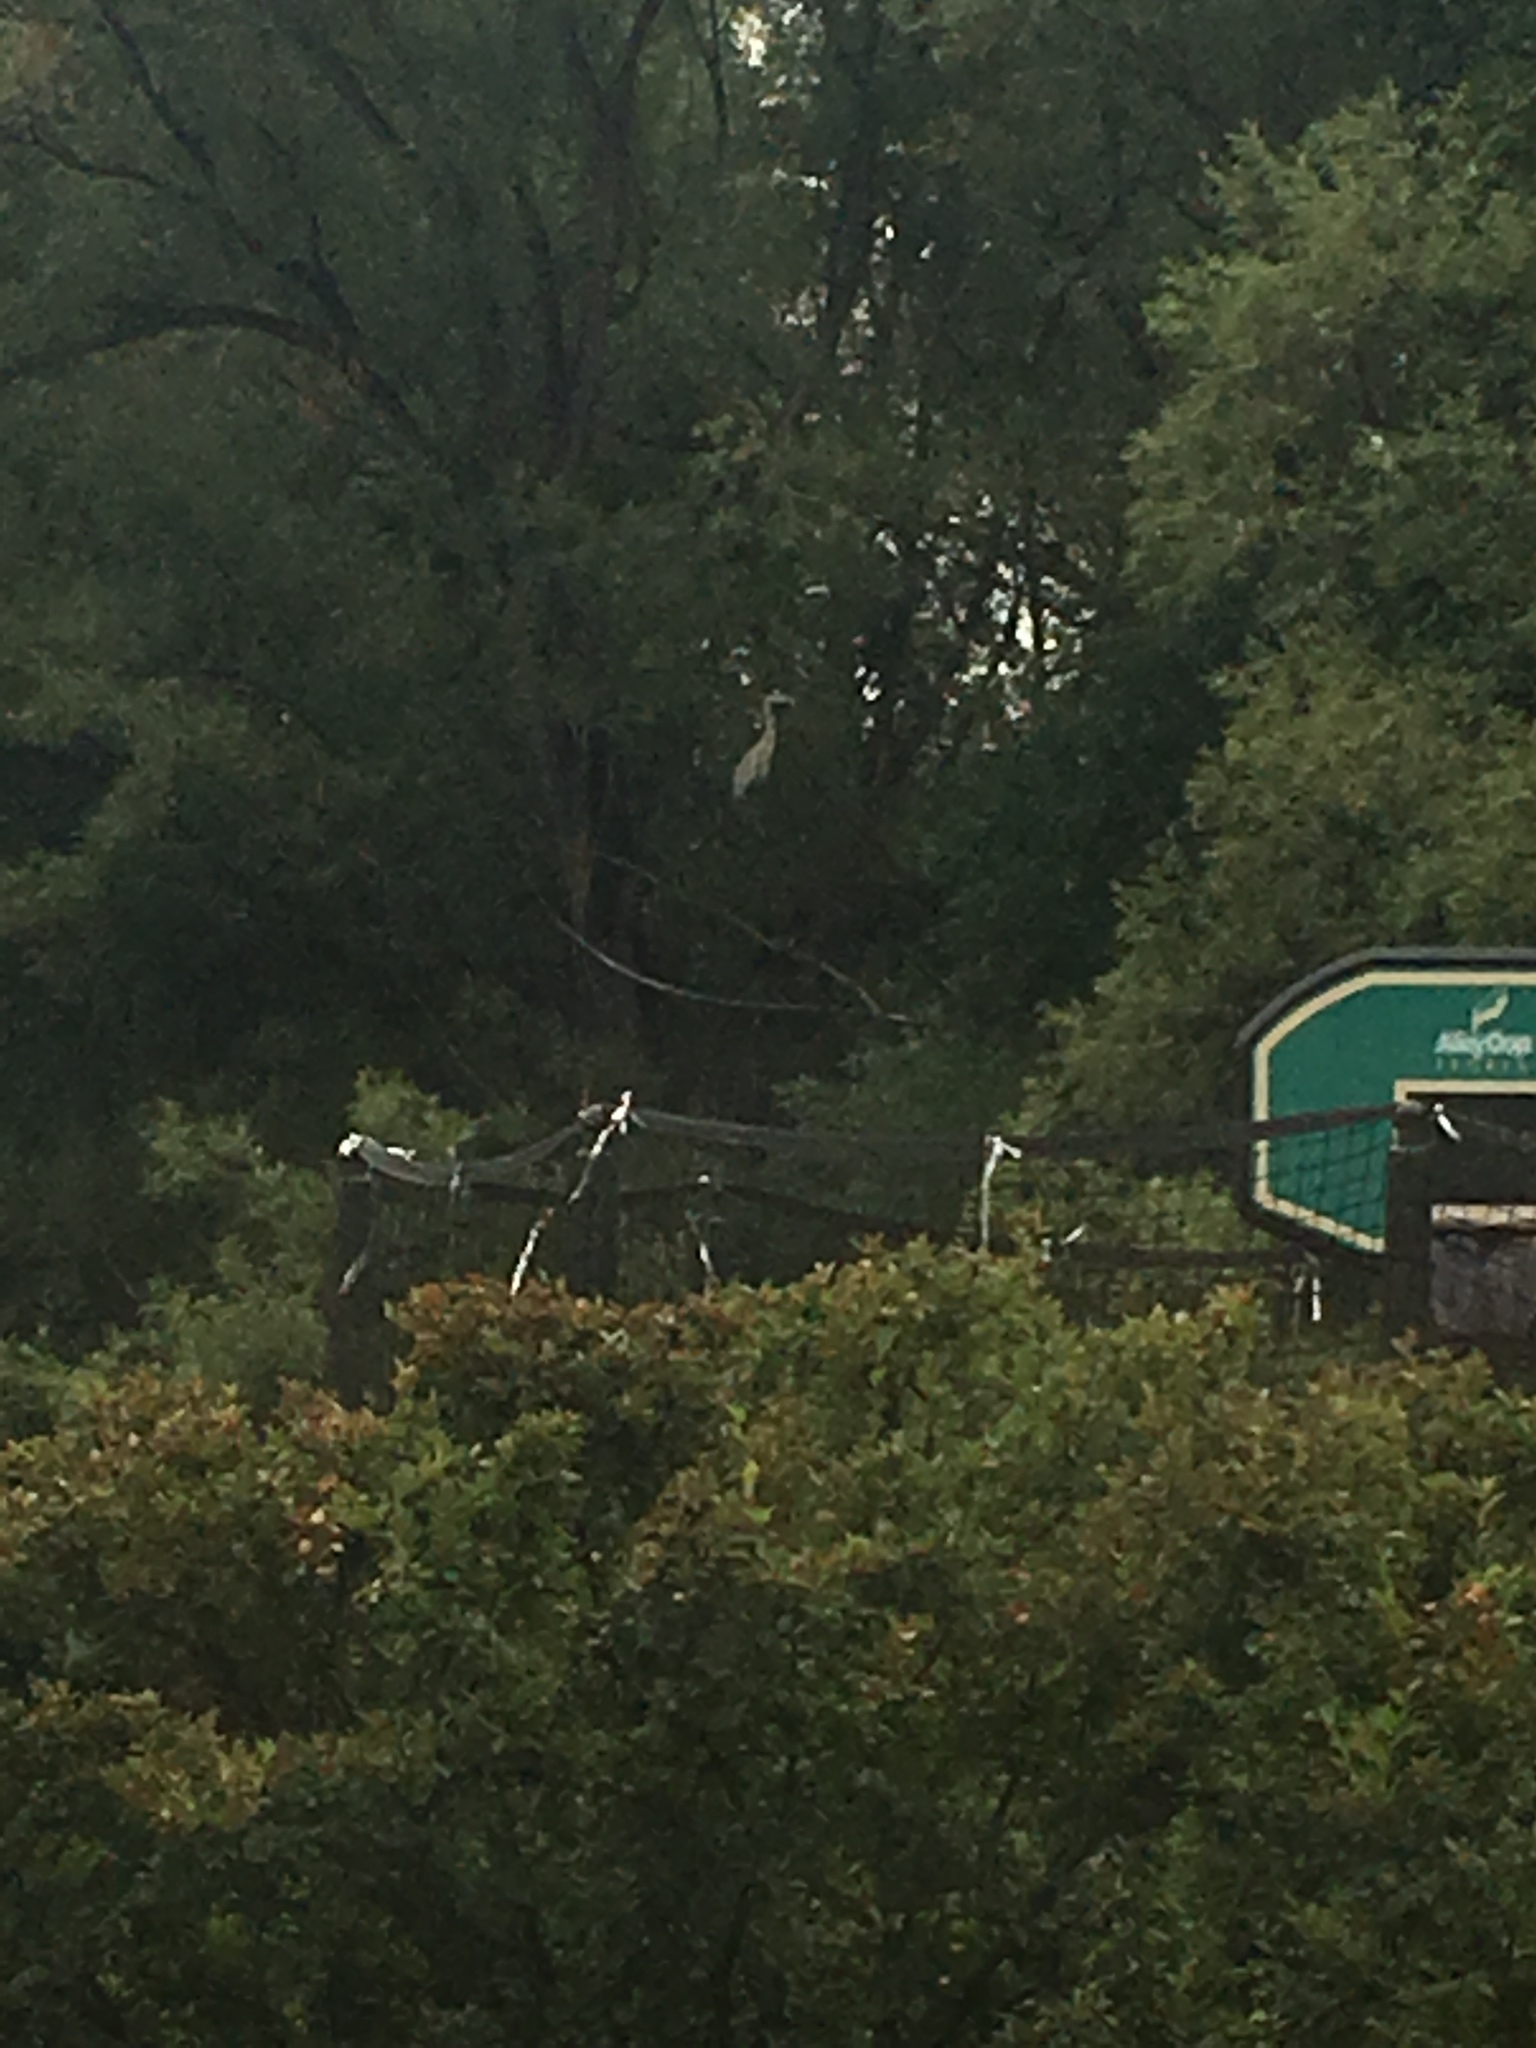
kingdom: Animalia
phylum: Chordata
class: Aves
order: Pelecaniformes
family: Ardeidae
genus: Ardea
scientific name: Ardea herodias
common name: Great blue heron
